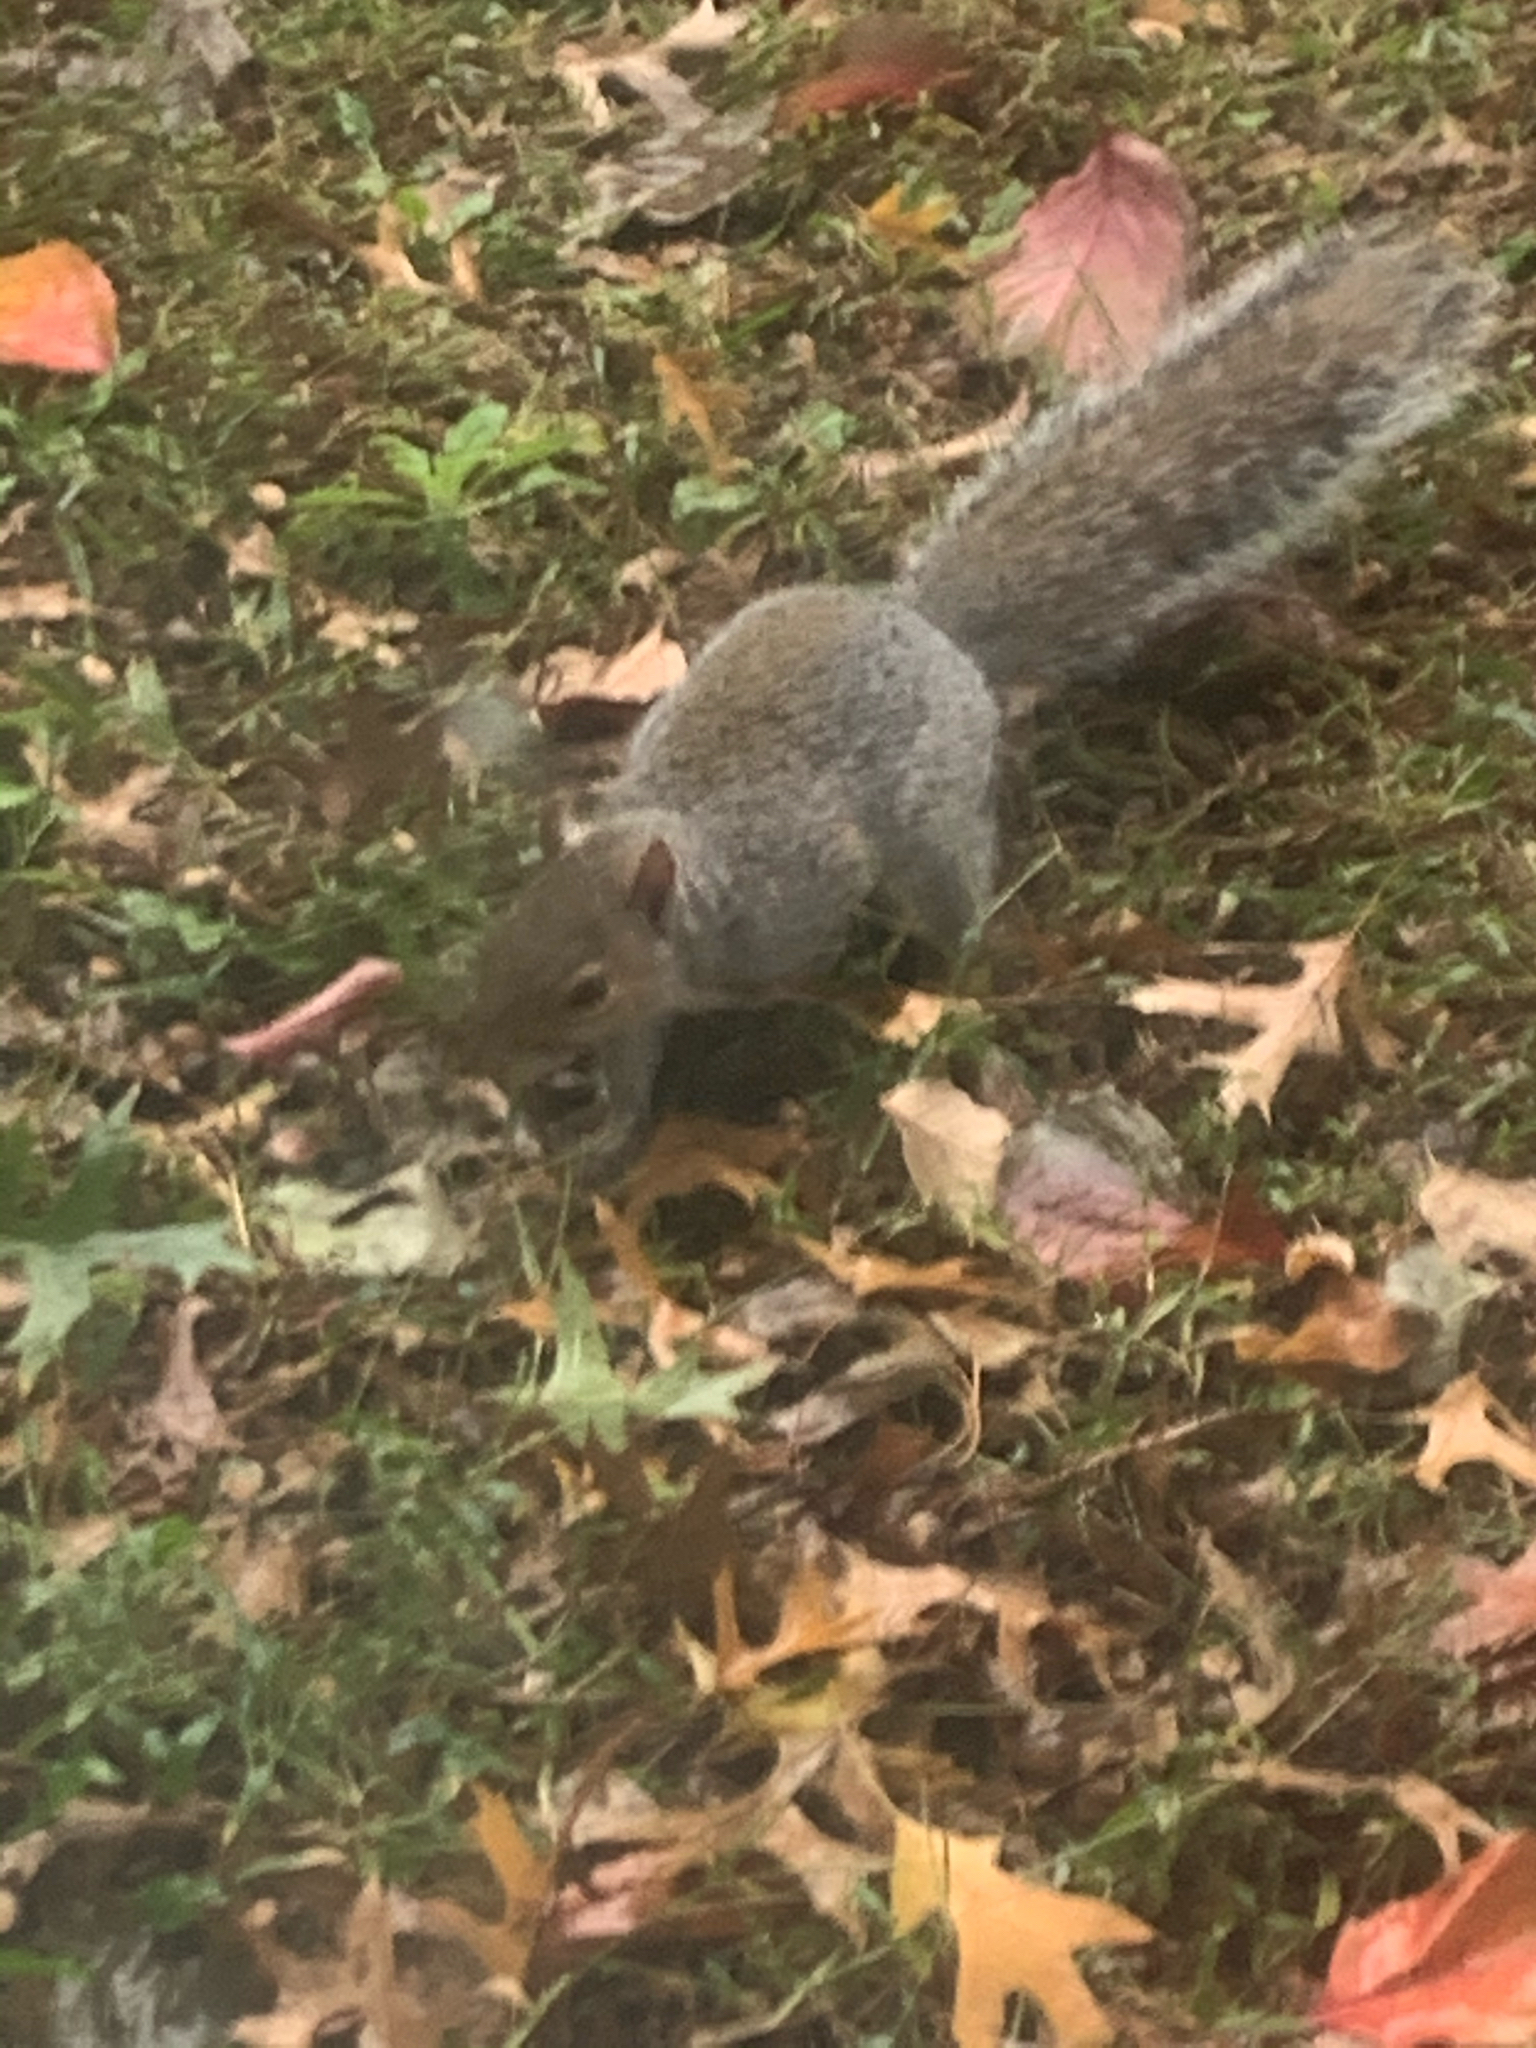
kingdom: Animalia
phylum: Chordata
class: Mammalia
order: Rodentia
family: Sciuridae
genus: Sciurus
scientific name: Sciurus carolinensis
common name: Eastern gray squirrel
